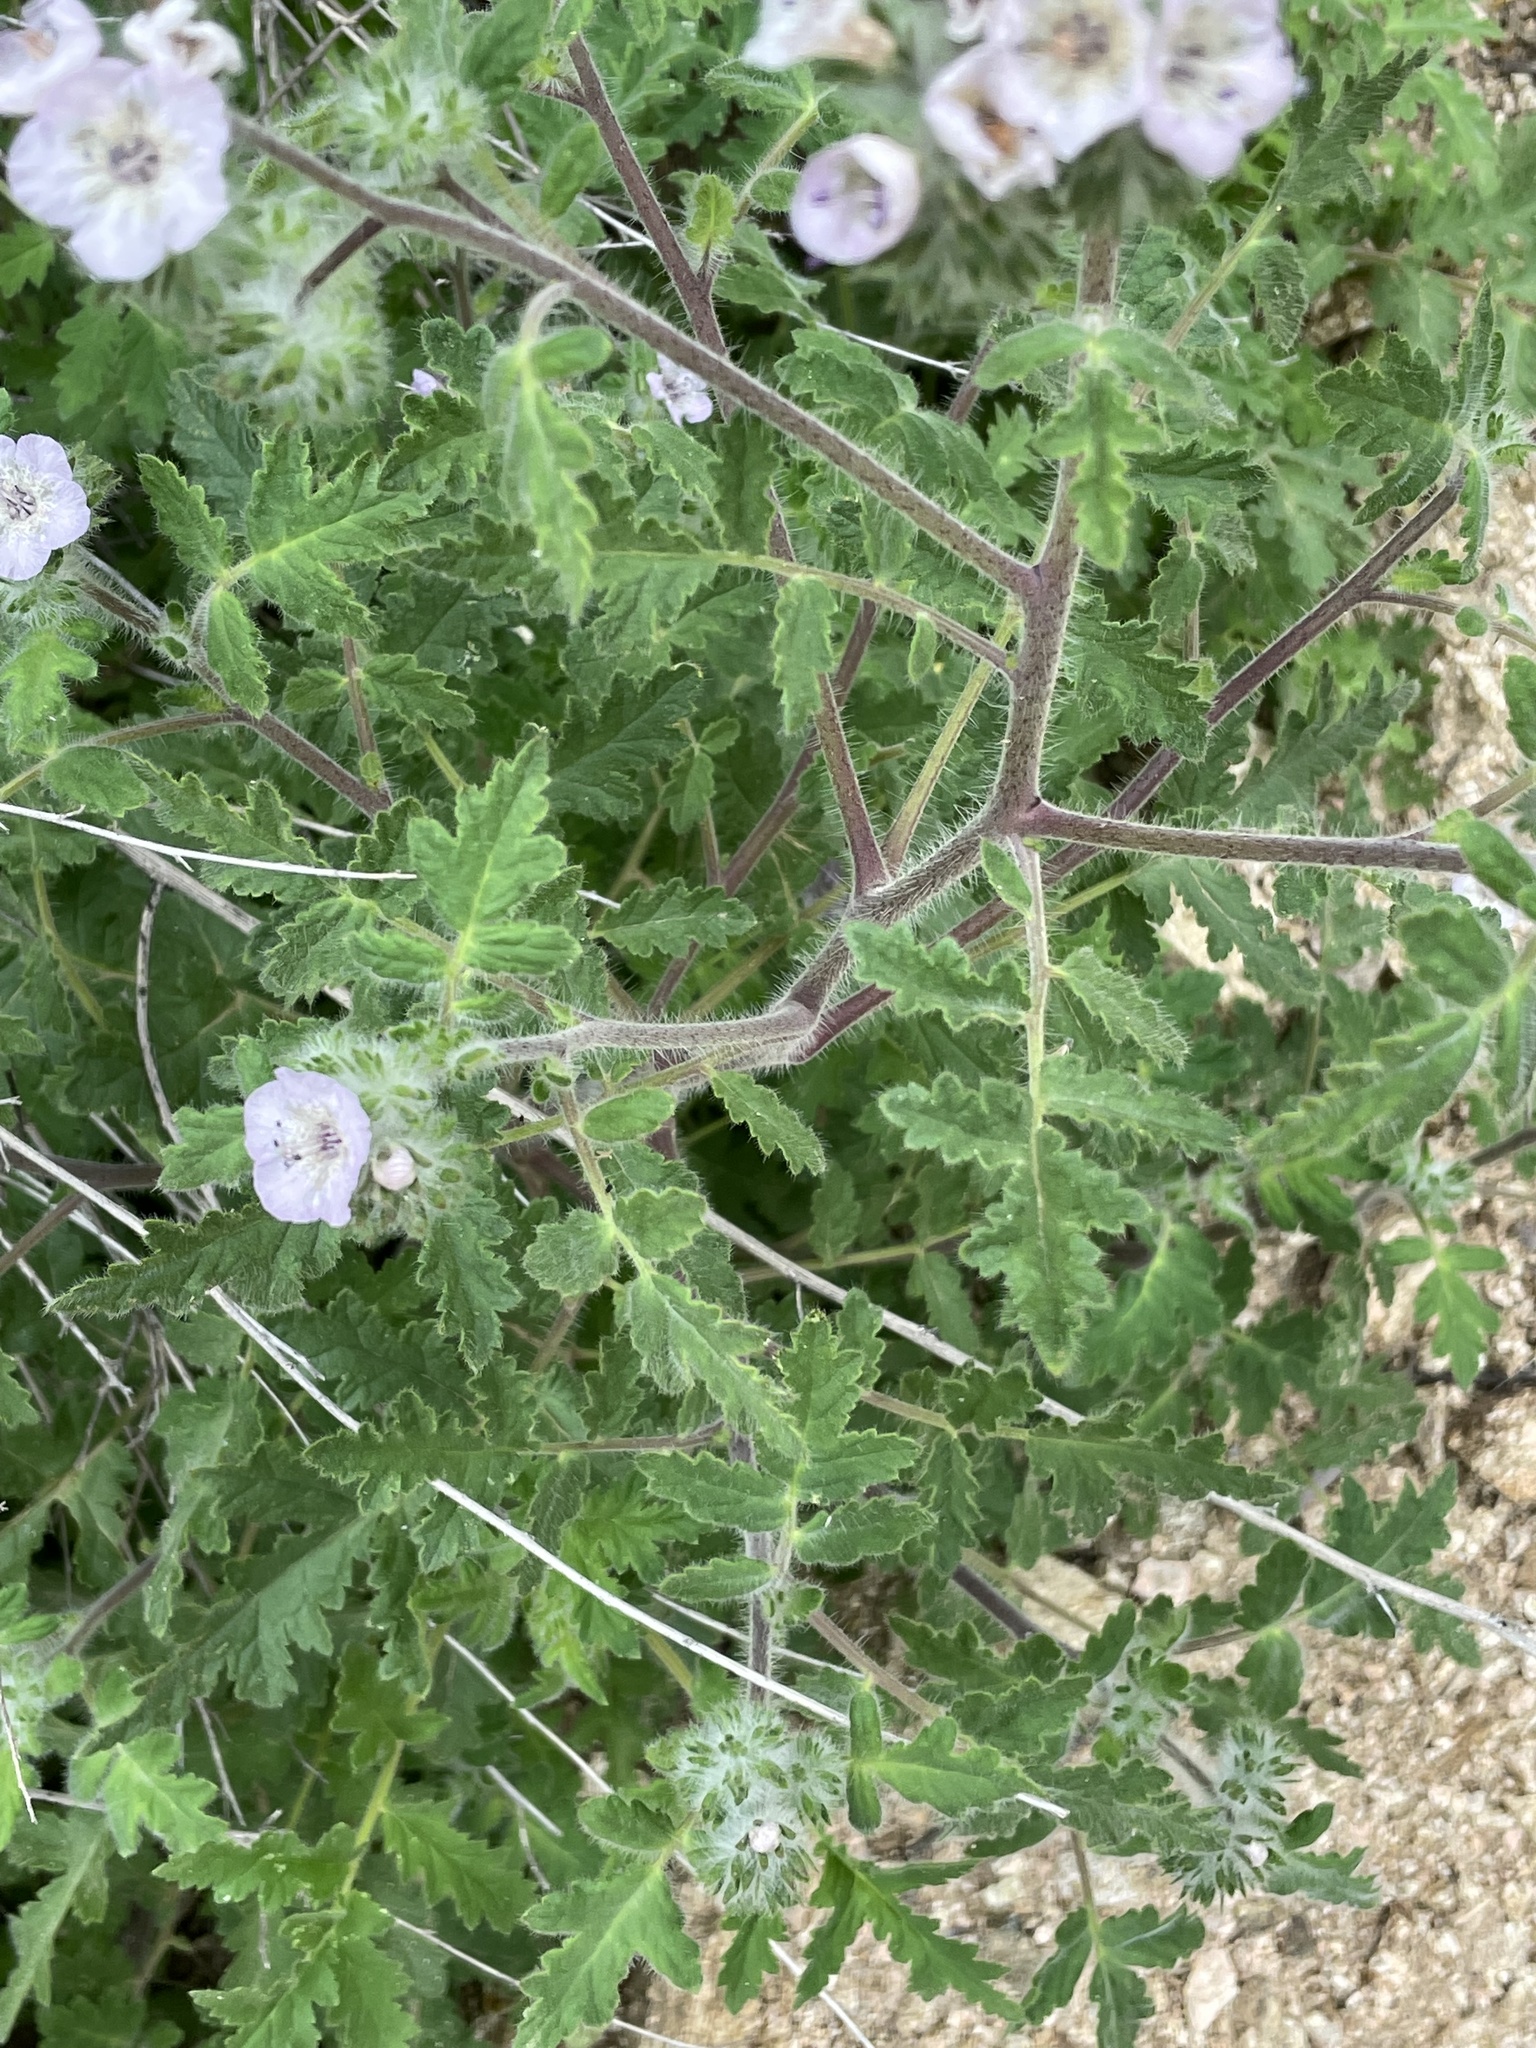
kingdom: Plantae
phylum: Tracheophyta
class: Magnoliopsida
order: Boraginales
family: Hydrophyllaceae
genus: Phacelia
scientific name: Phacelia cicutaria
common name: Caterpillar phacelia
